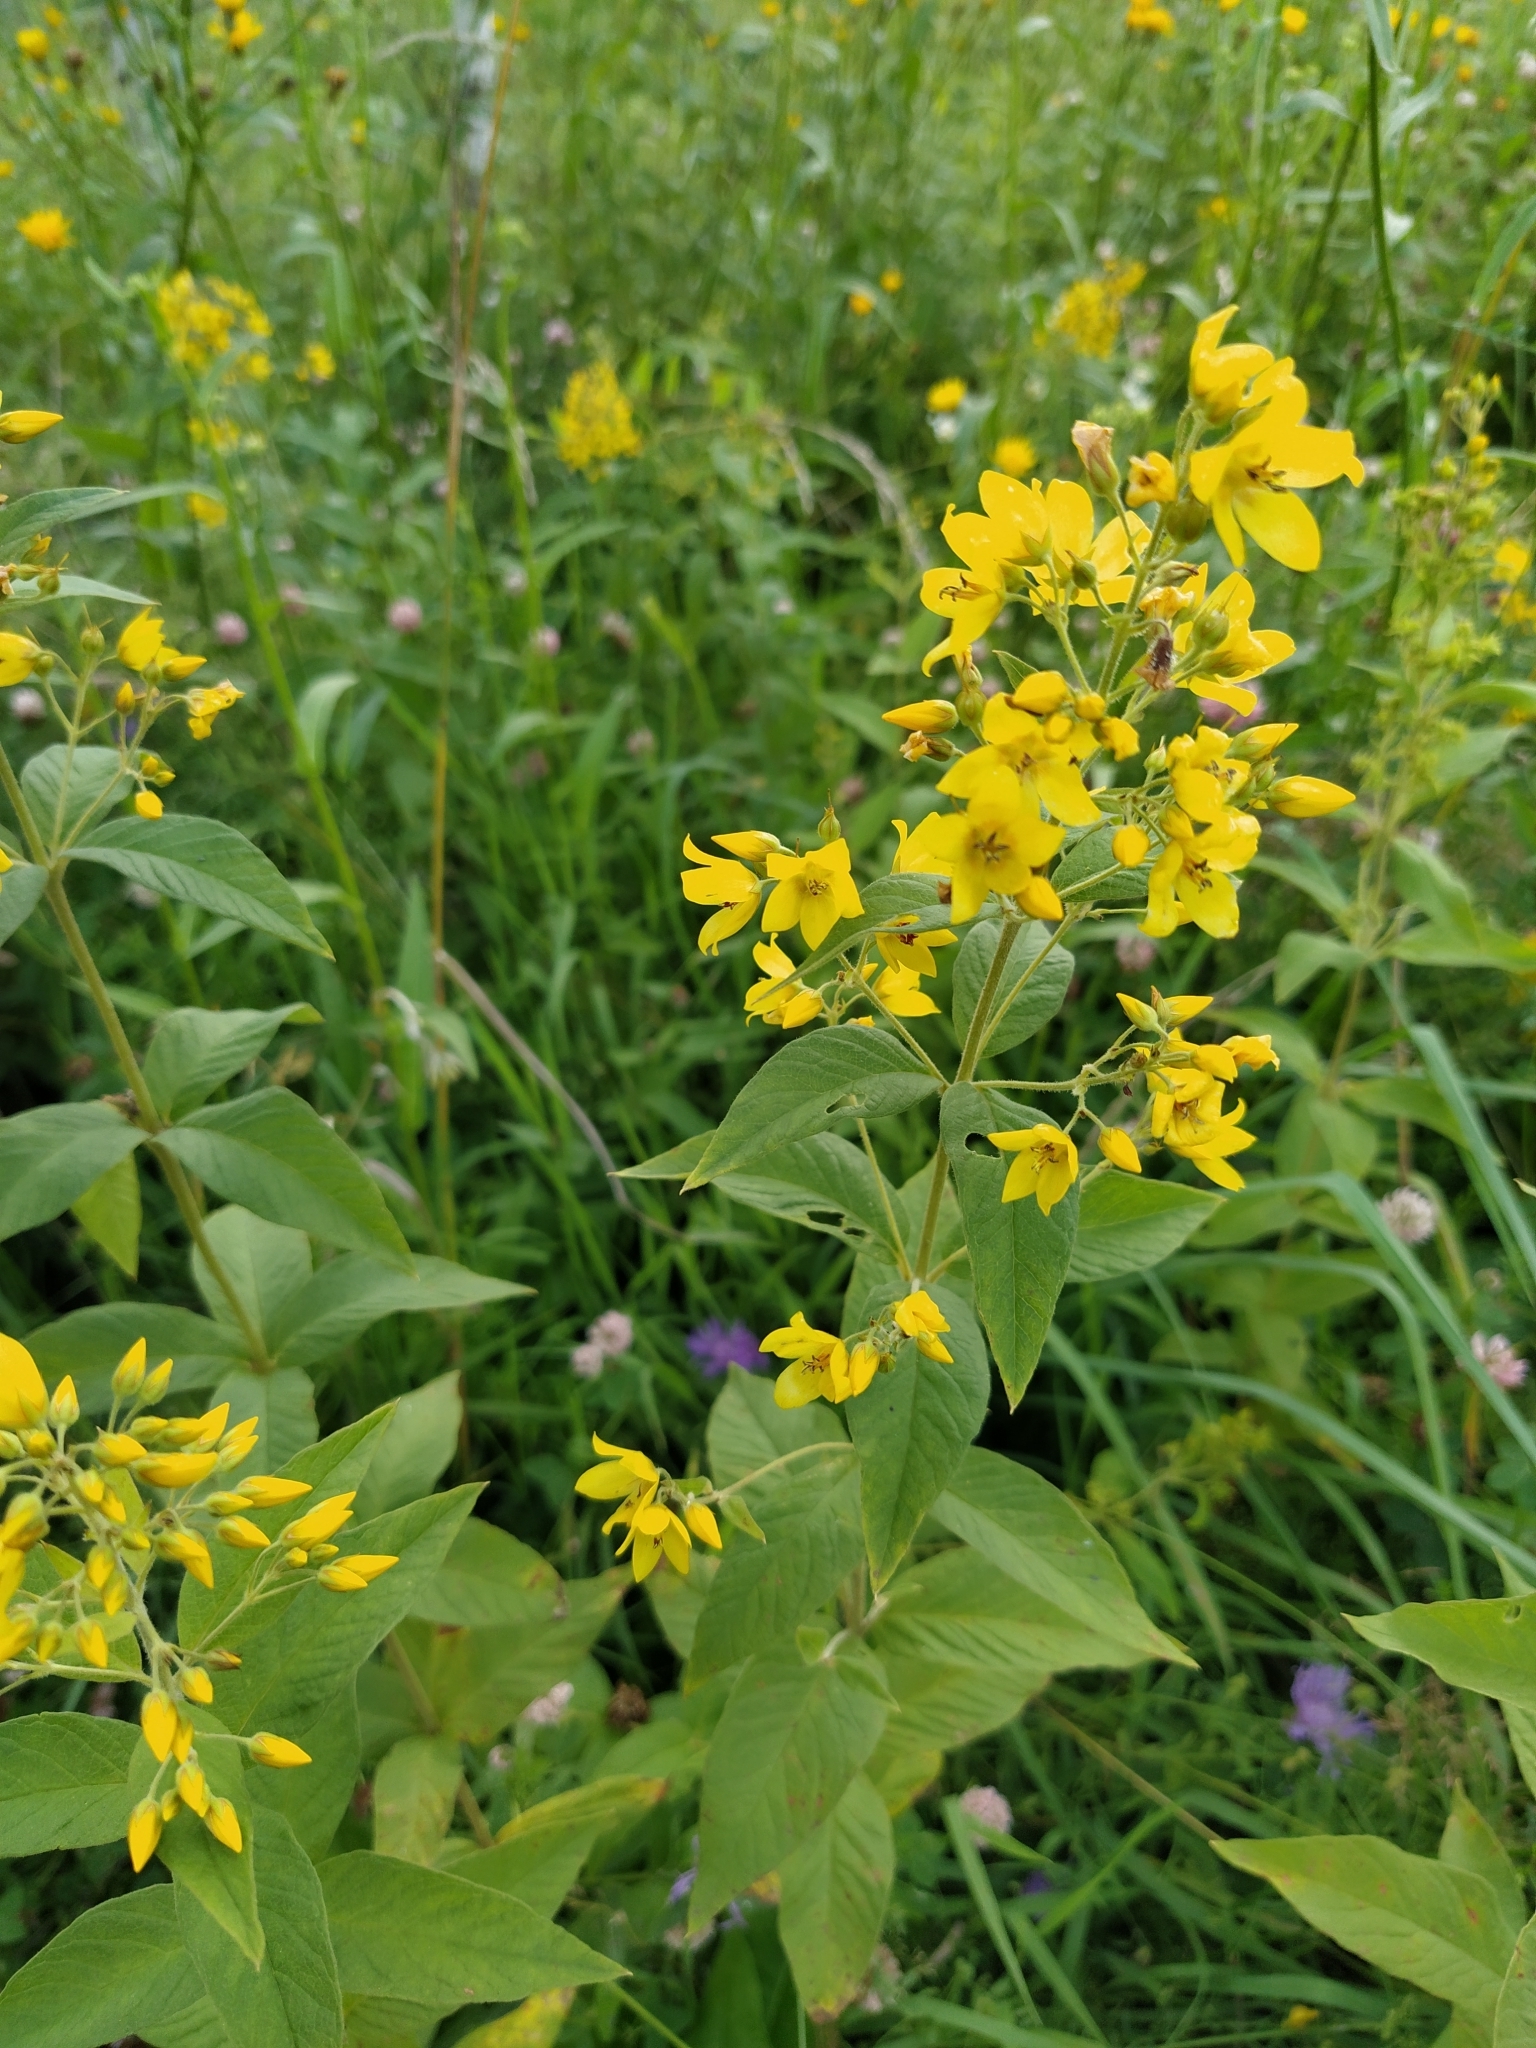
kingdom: Plantae
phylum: Tracheophyta
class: Magnoliopsida
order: Ericales
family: Primulaceae
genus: Lysimachia
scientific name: Lysimachia vulgaris
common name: Yellow loosestrife
